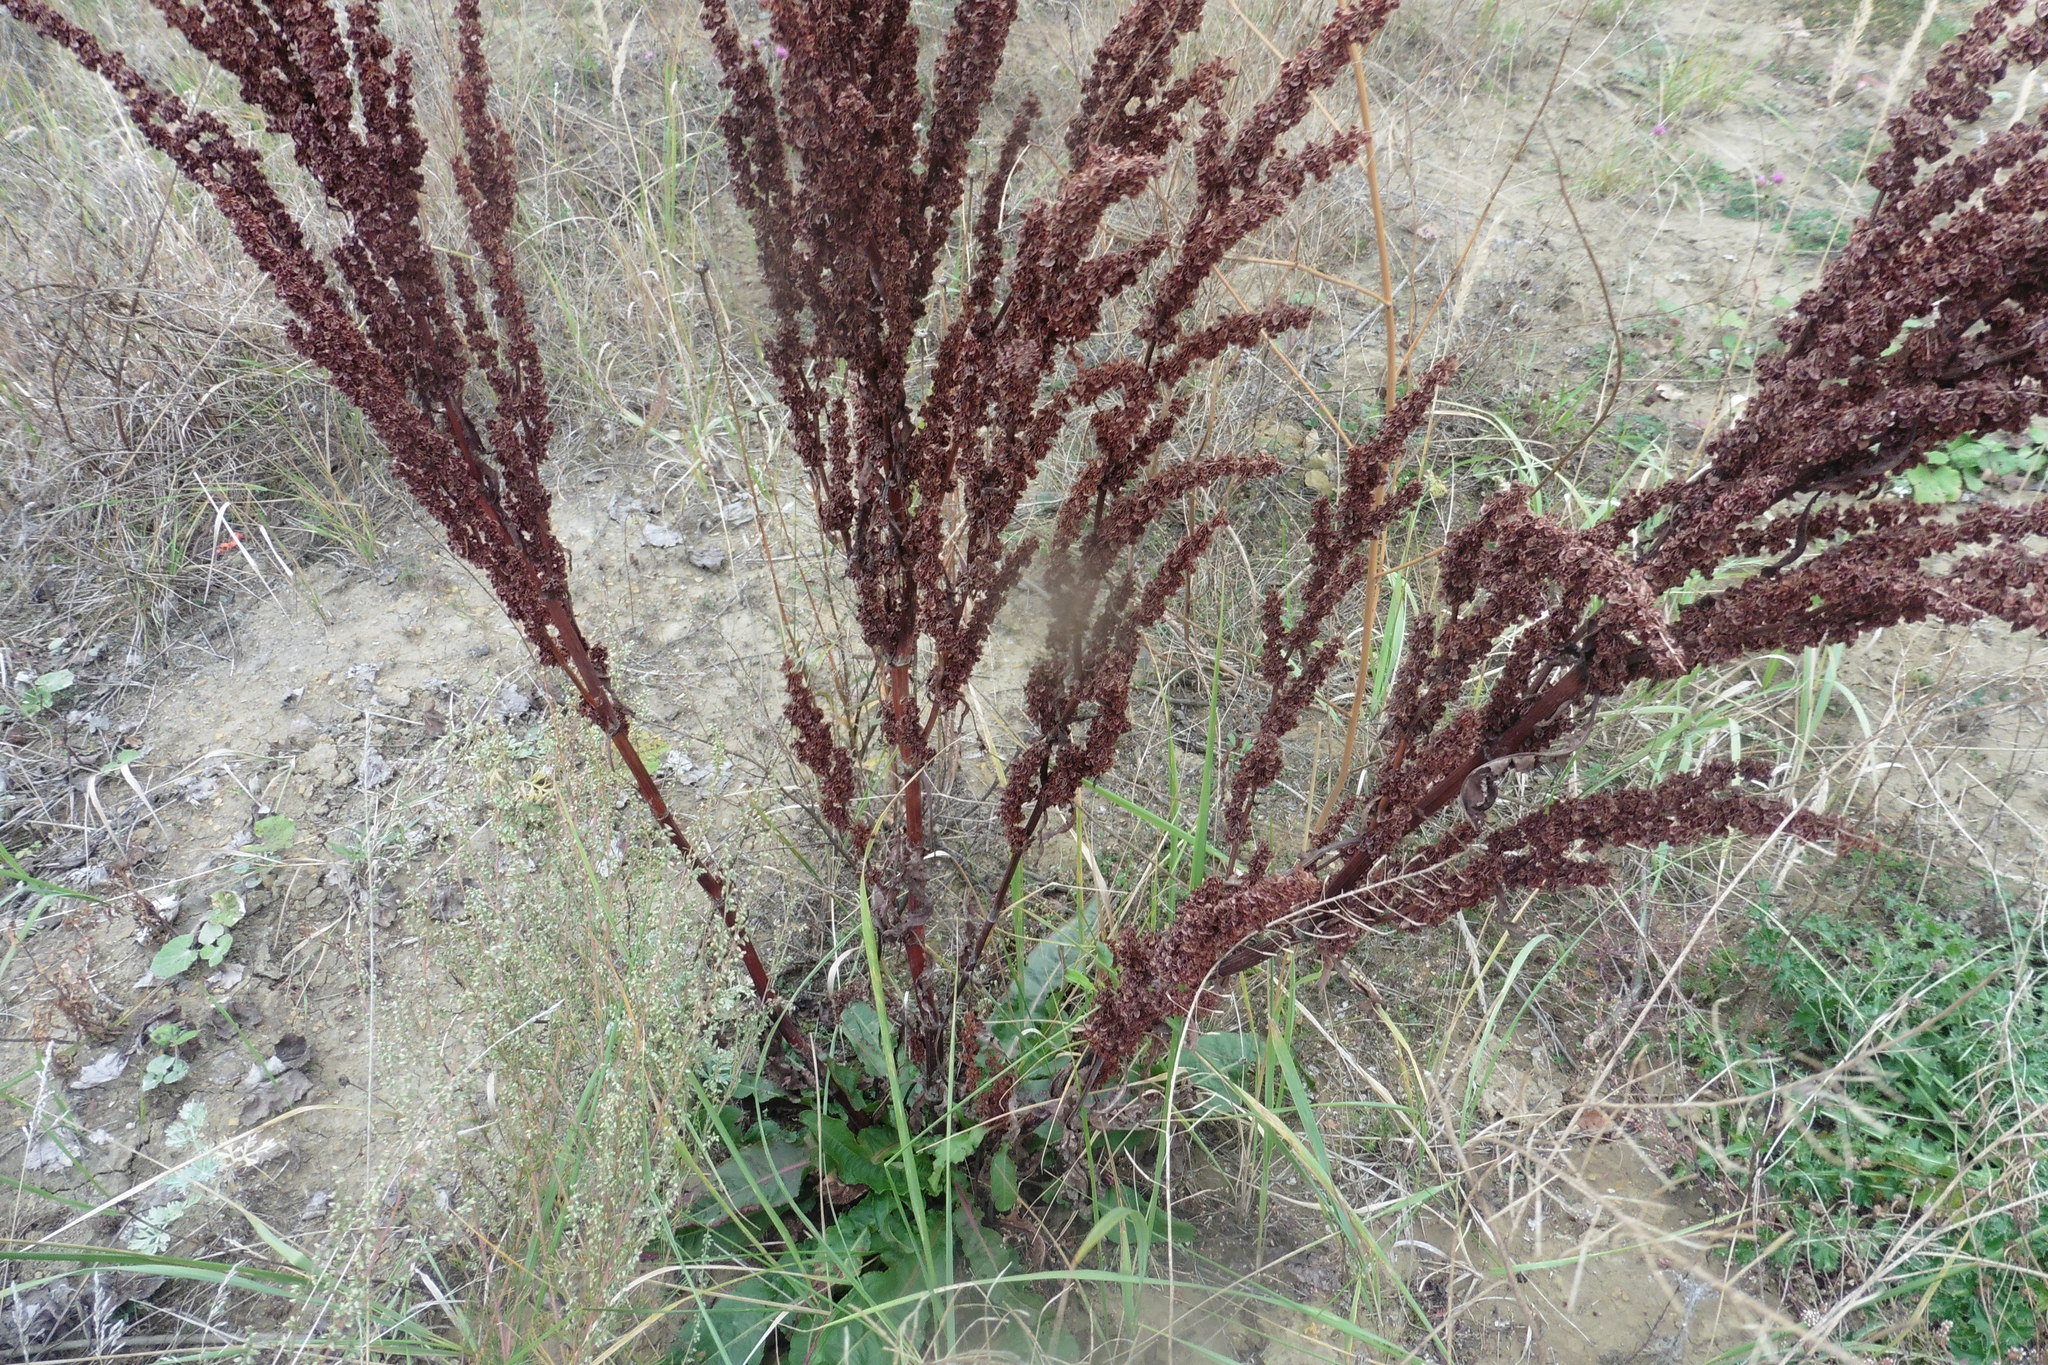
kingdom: Plantae
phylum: Tracheophyta
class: Magnoliopsida
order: Caryophyllales
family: Polygonaceae
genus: Rumex
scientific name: Rumex crispus
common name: Curled dock
